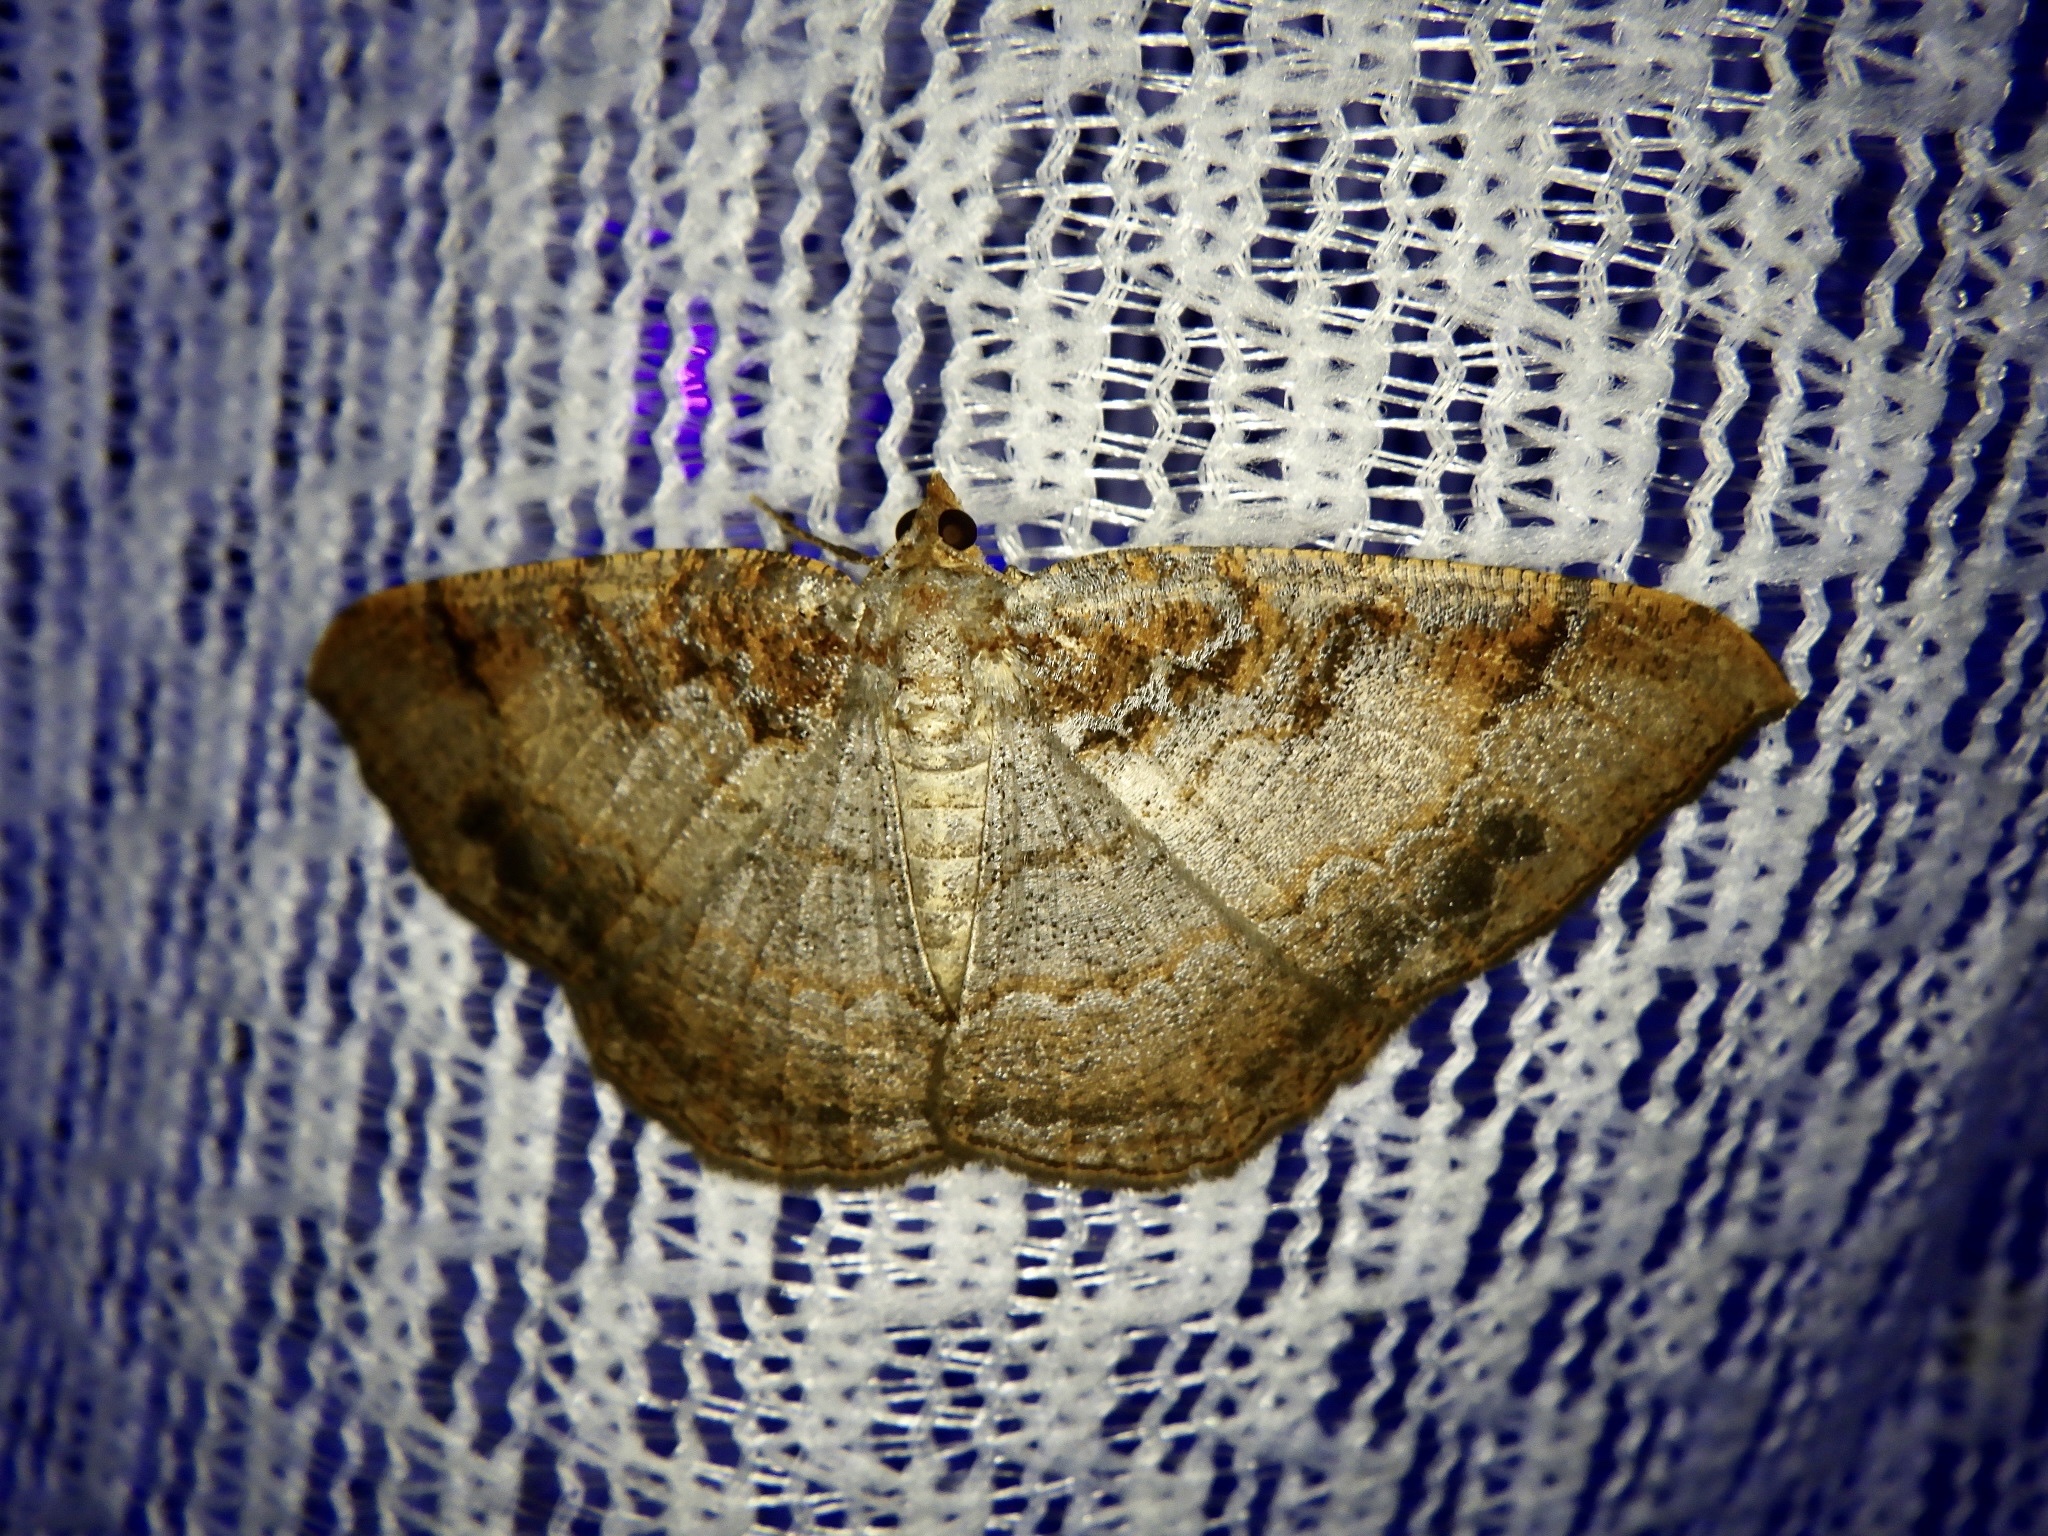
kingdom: Animalia
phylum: Arthropoda
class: Insecta
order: Lepidoptera
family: Geometridae
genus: Hypephyra
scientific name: Hypephyra terrosa
